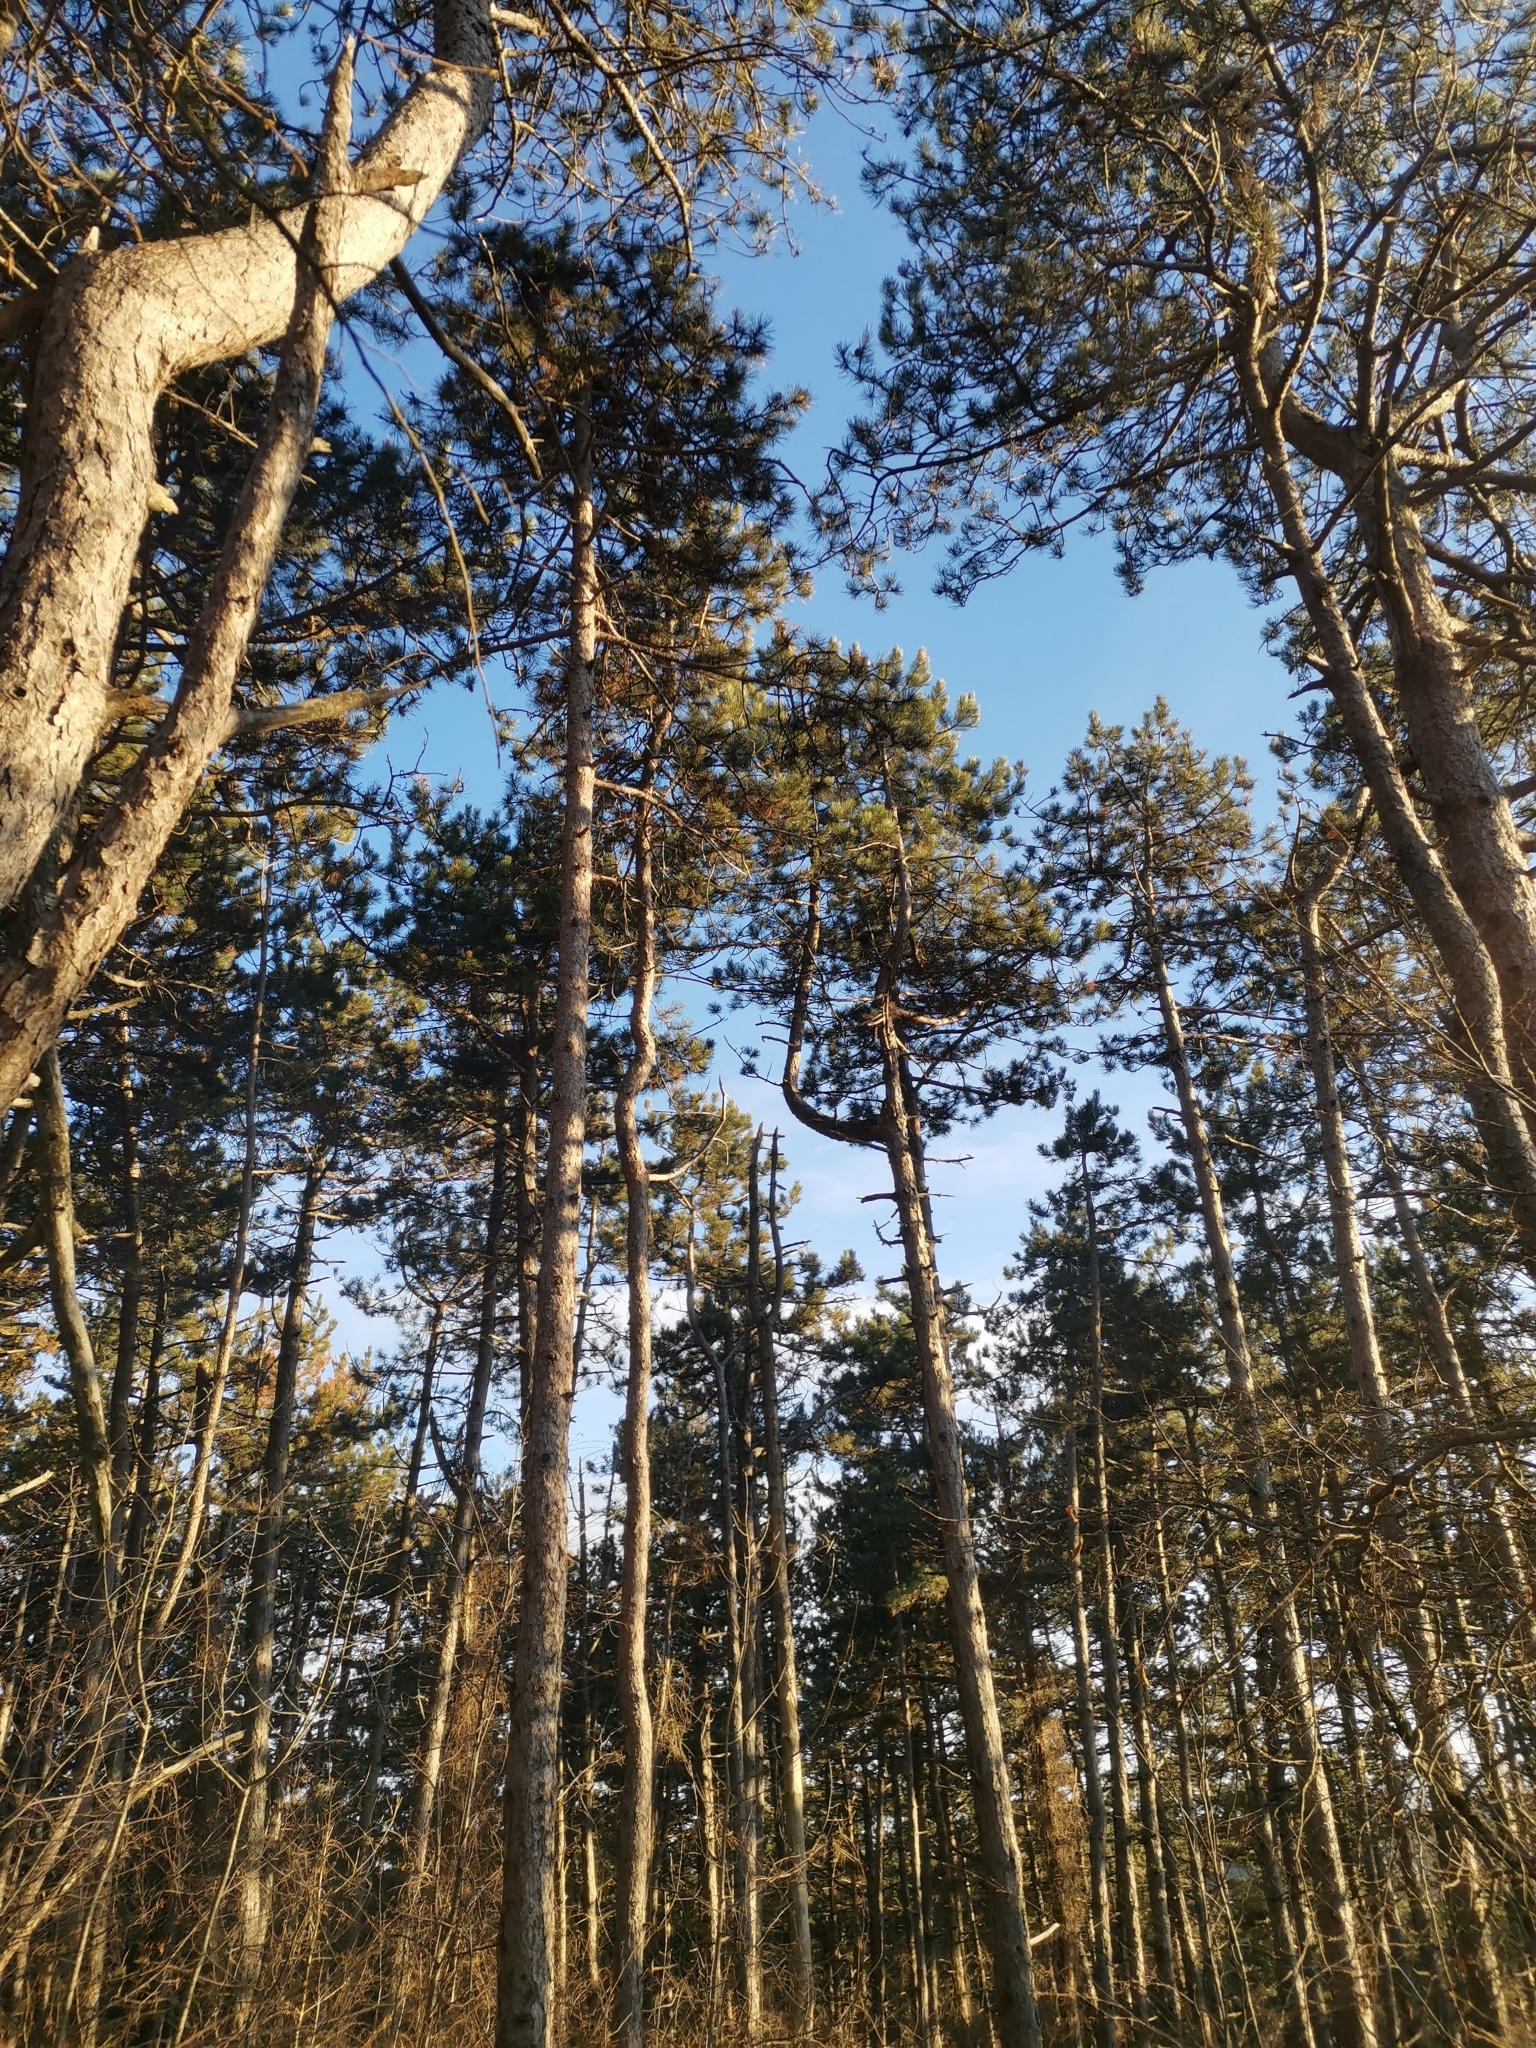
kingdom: Plantae
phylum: Tracheophyta
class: Pinopsida
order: Pinales
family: Pinaceae
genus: Pinus
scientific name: Pinus nigra
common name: Austrian pine
